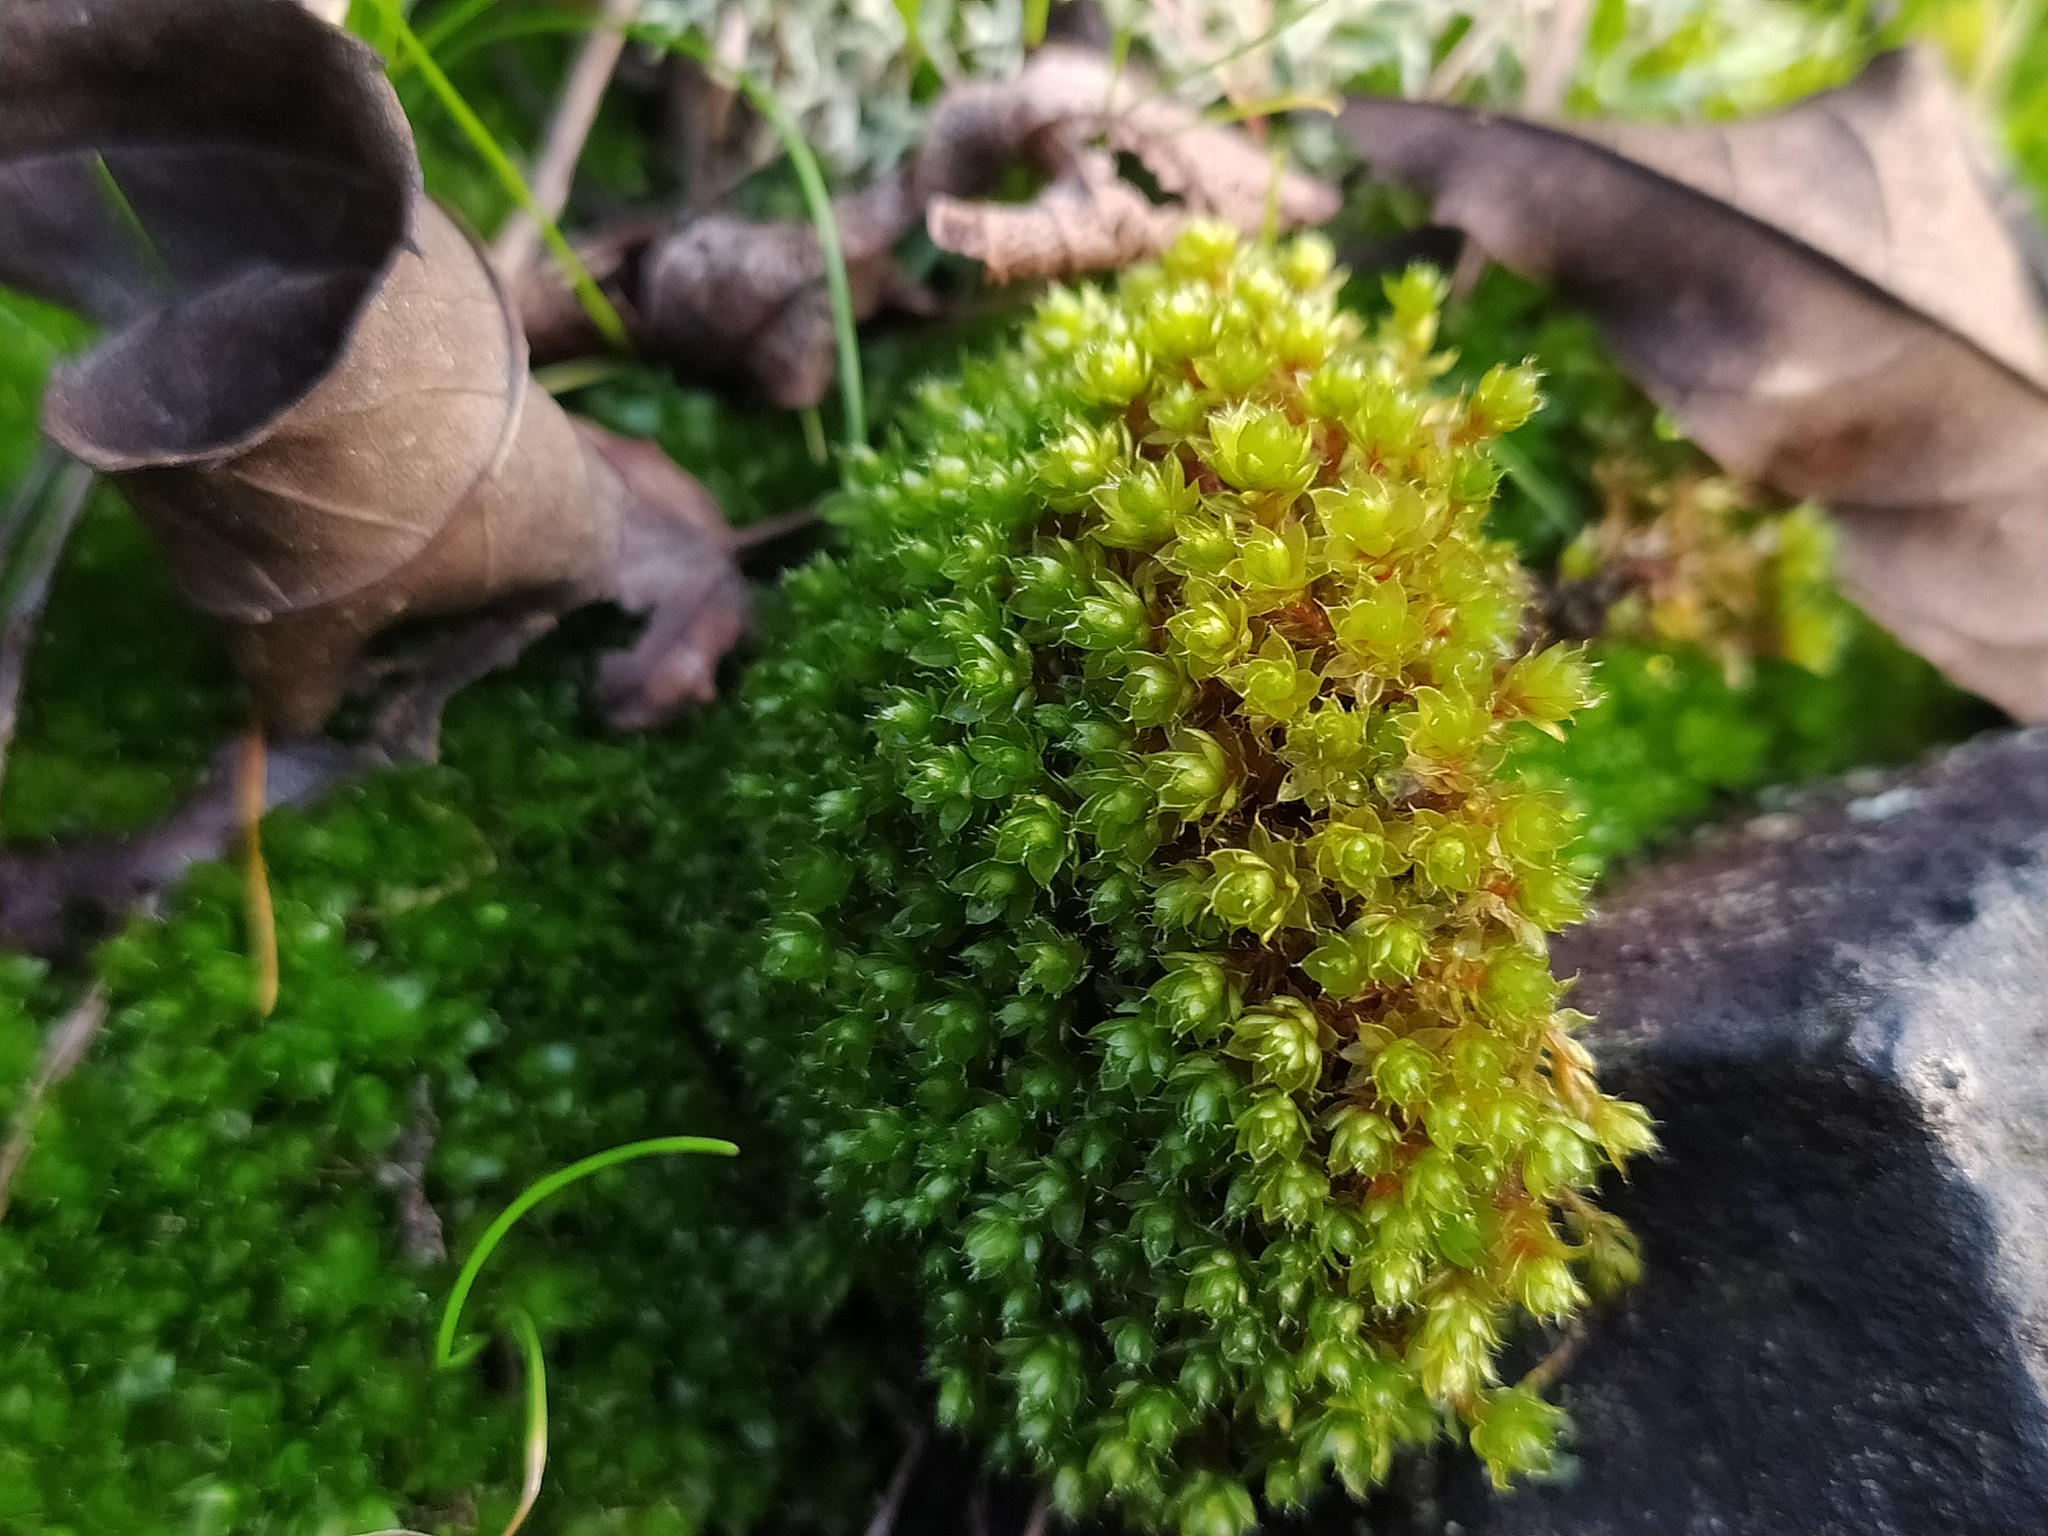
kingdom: Plantae
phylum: Bryophyta
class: Bryopsida
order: Bryales
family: Bryaceae
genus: Rosulabryum
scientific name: Rosulabryum capillare
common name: Capillary thread-moss
